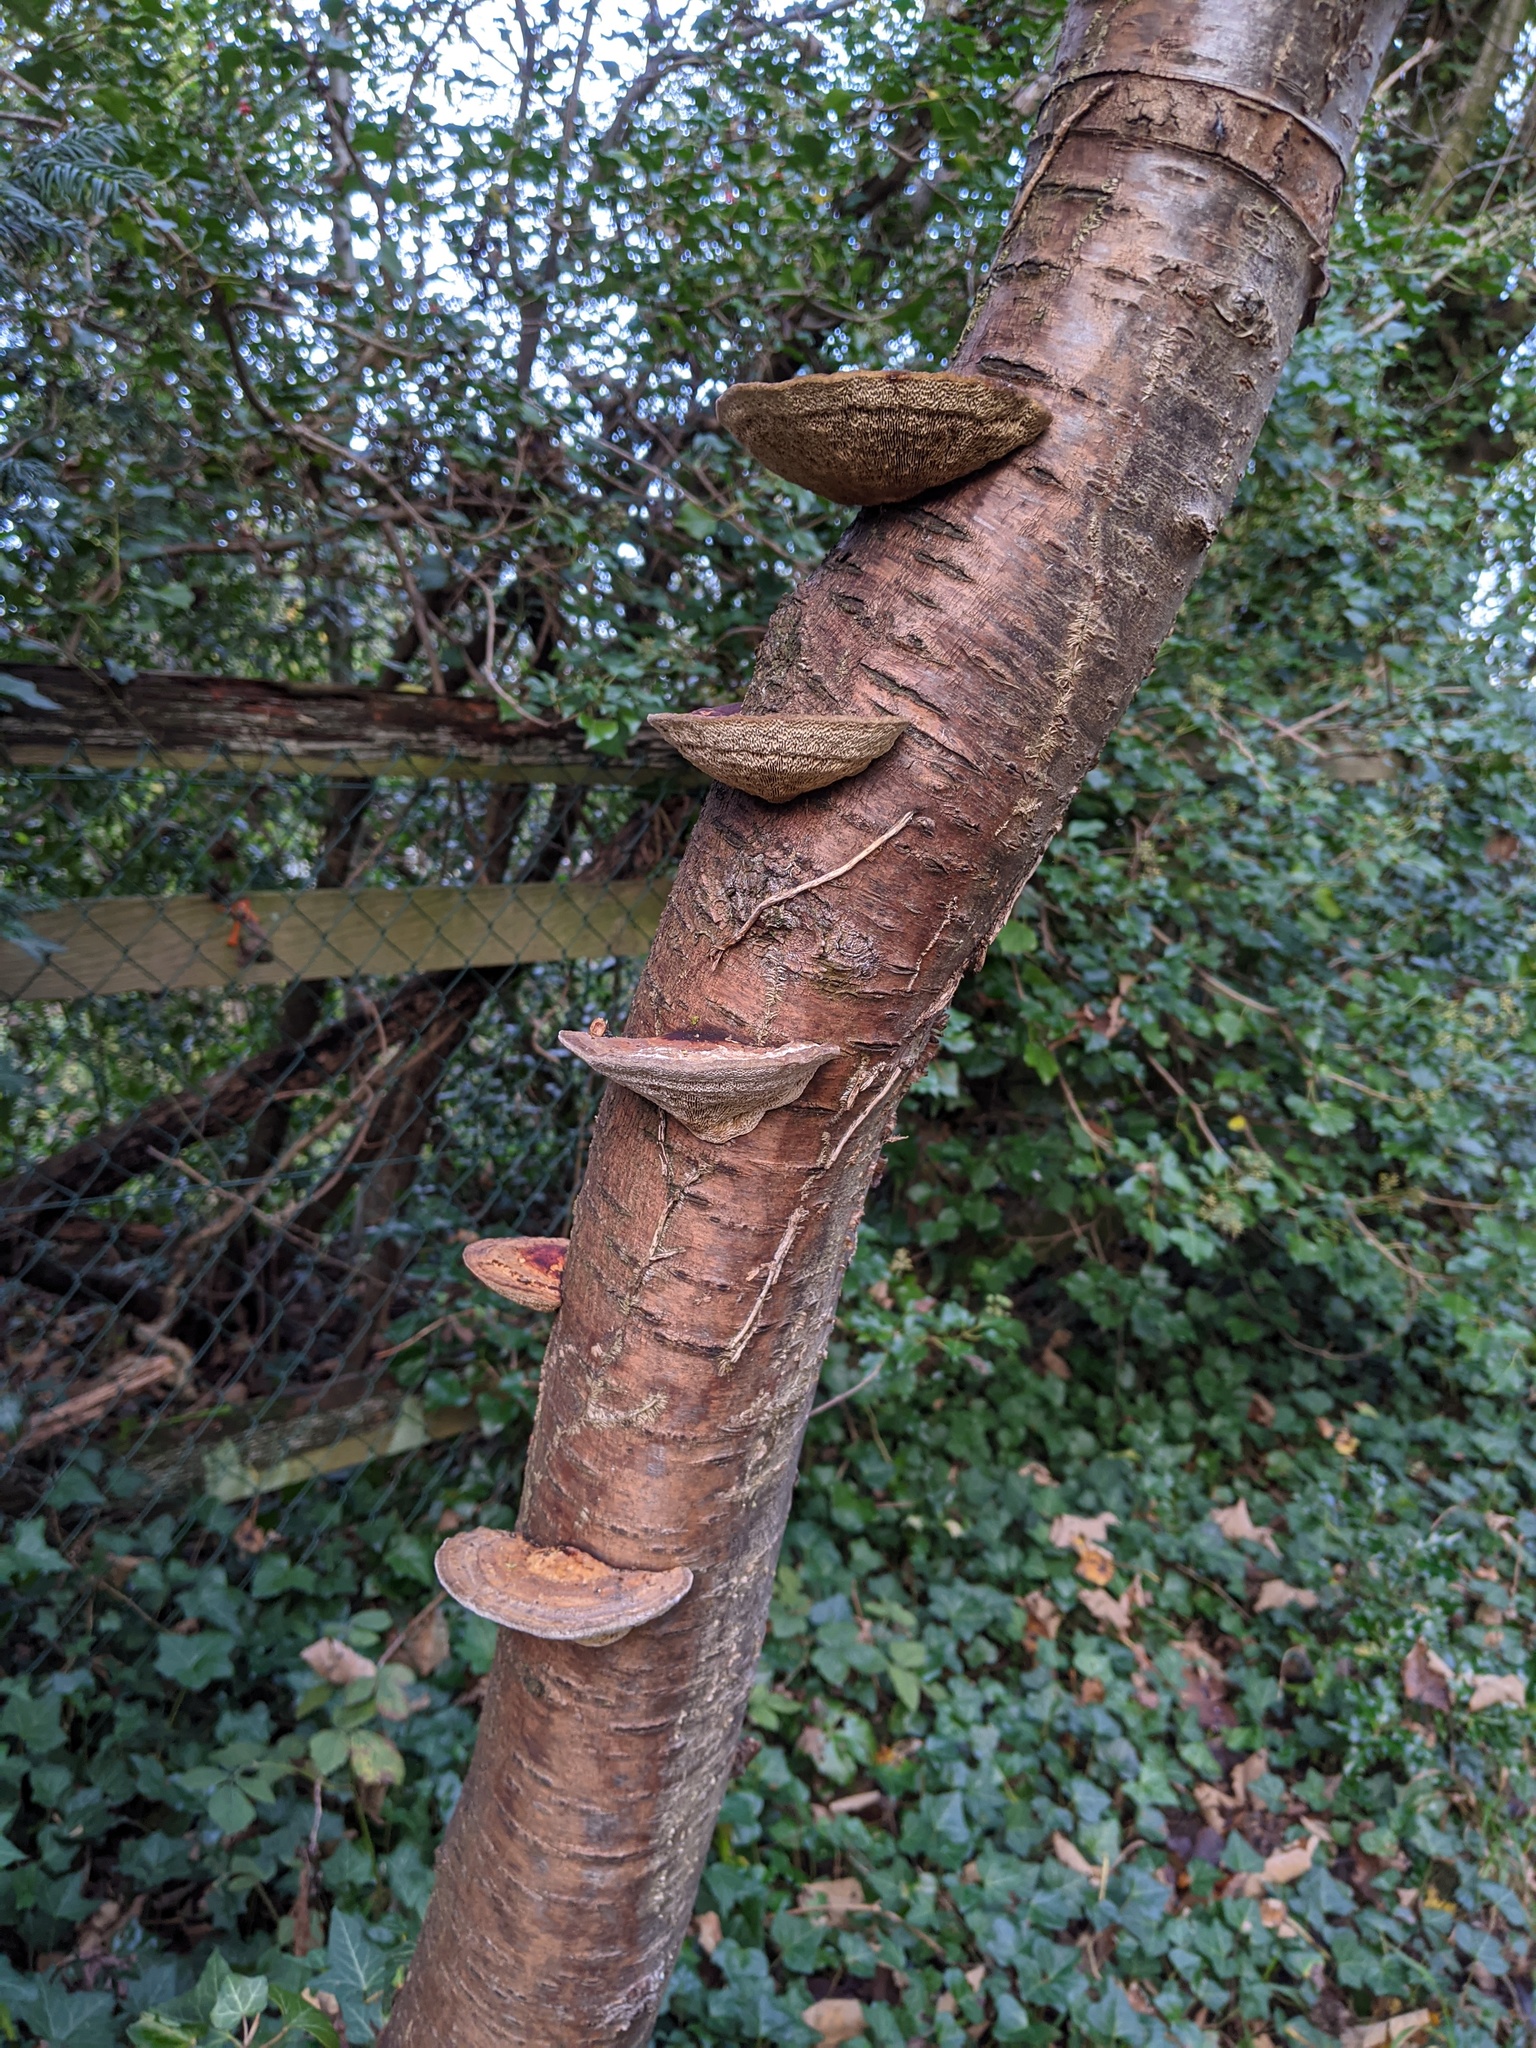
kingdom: Fungi
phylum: Basidiomycota
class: Agaricomycetes
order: Polyporales
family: Polyporaceae
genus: Daedaleopsis
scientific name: Daedaleopsis confragosa
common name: Blushing bracket
